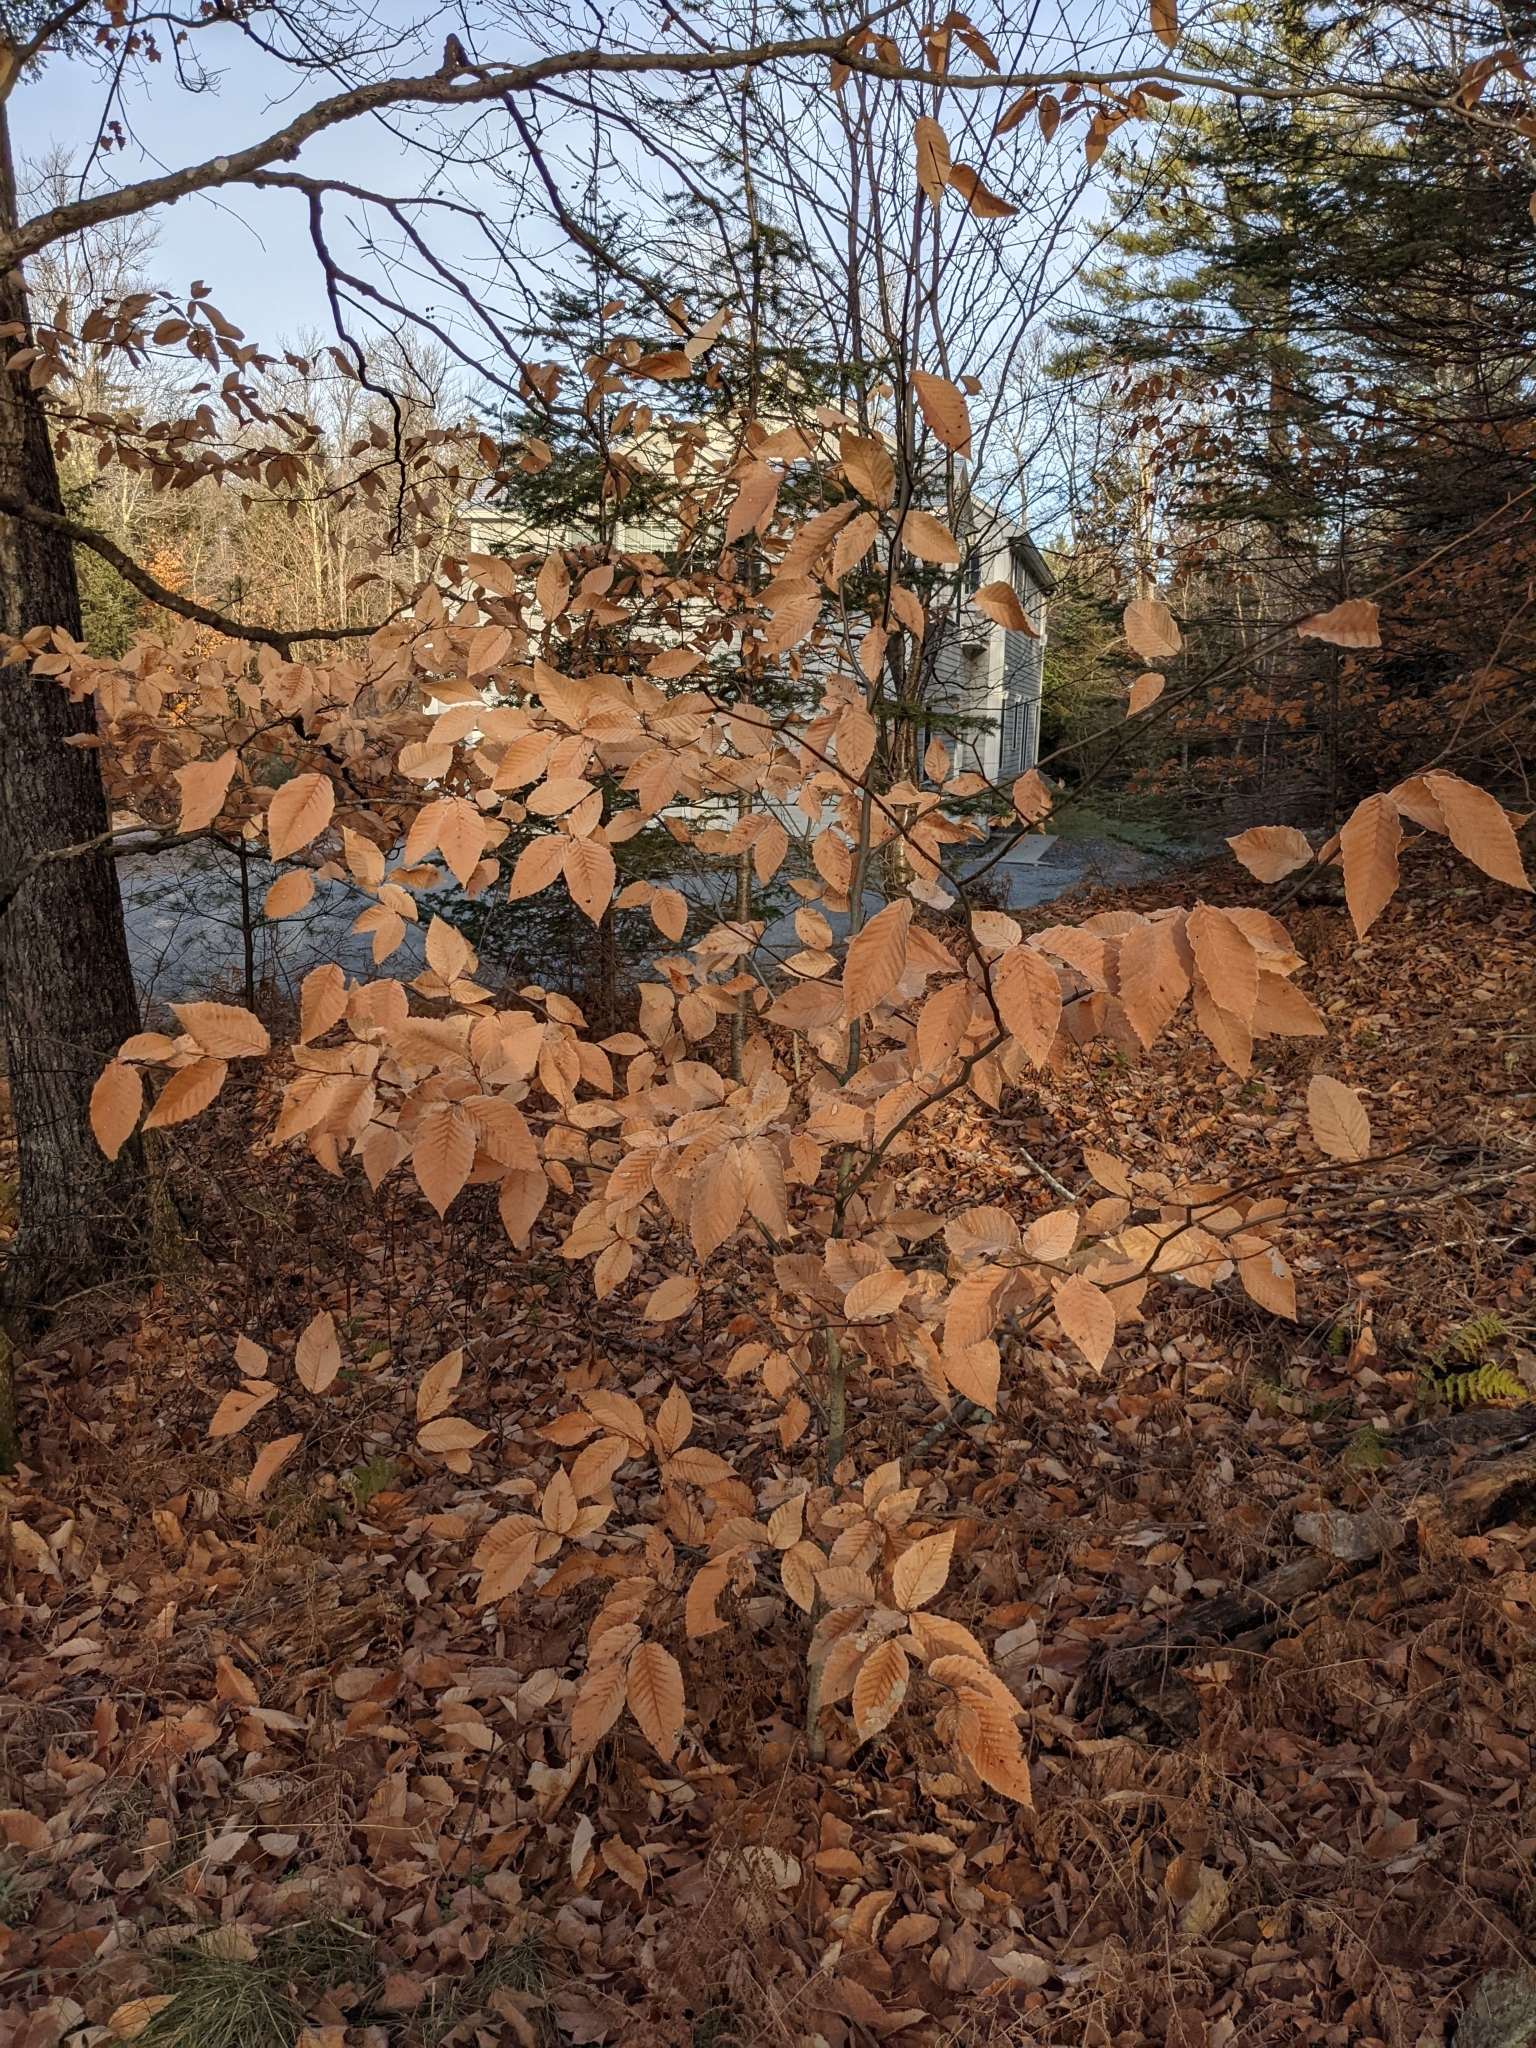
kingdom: Plantae
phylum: Tracheophyta
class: Magnoliopsida
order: Fagales
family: Fagaceae
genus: Fagus
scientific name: Fagus grandifolia
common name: American beech
